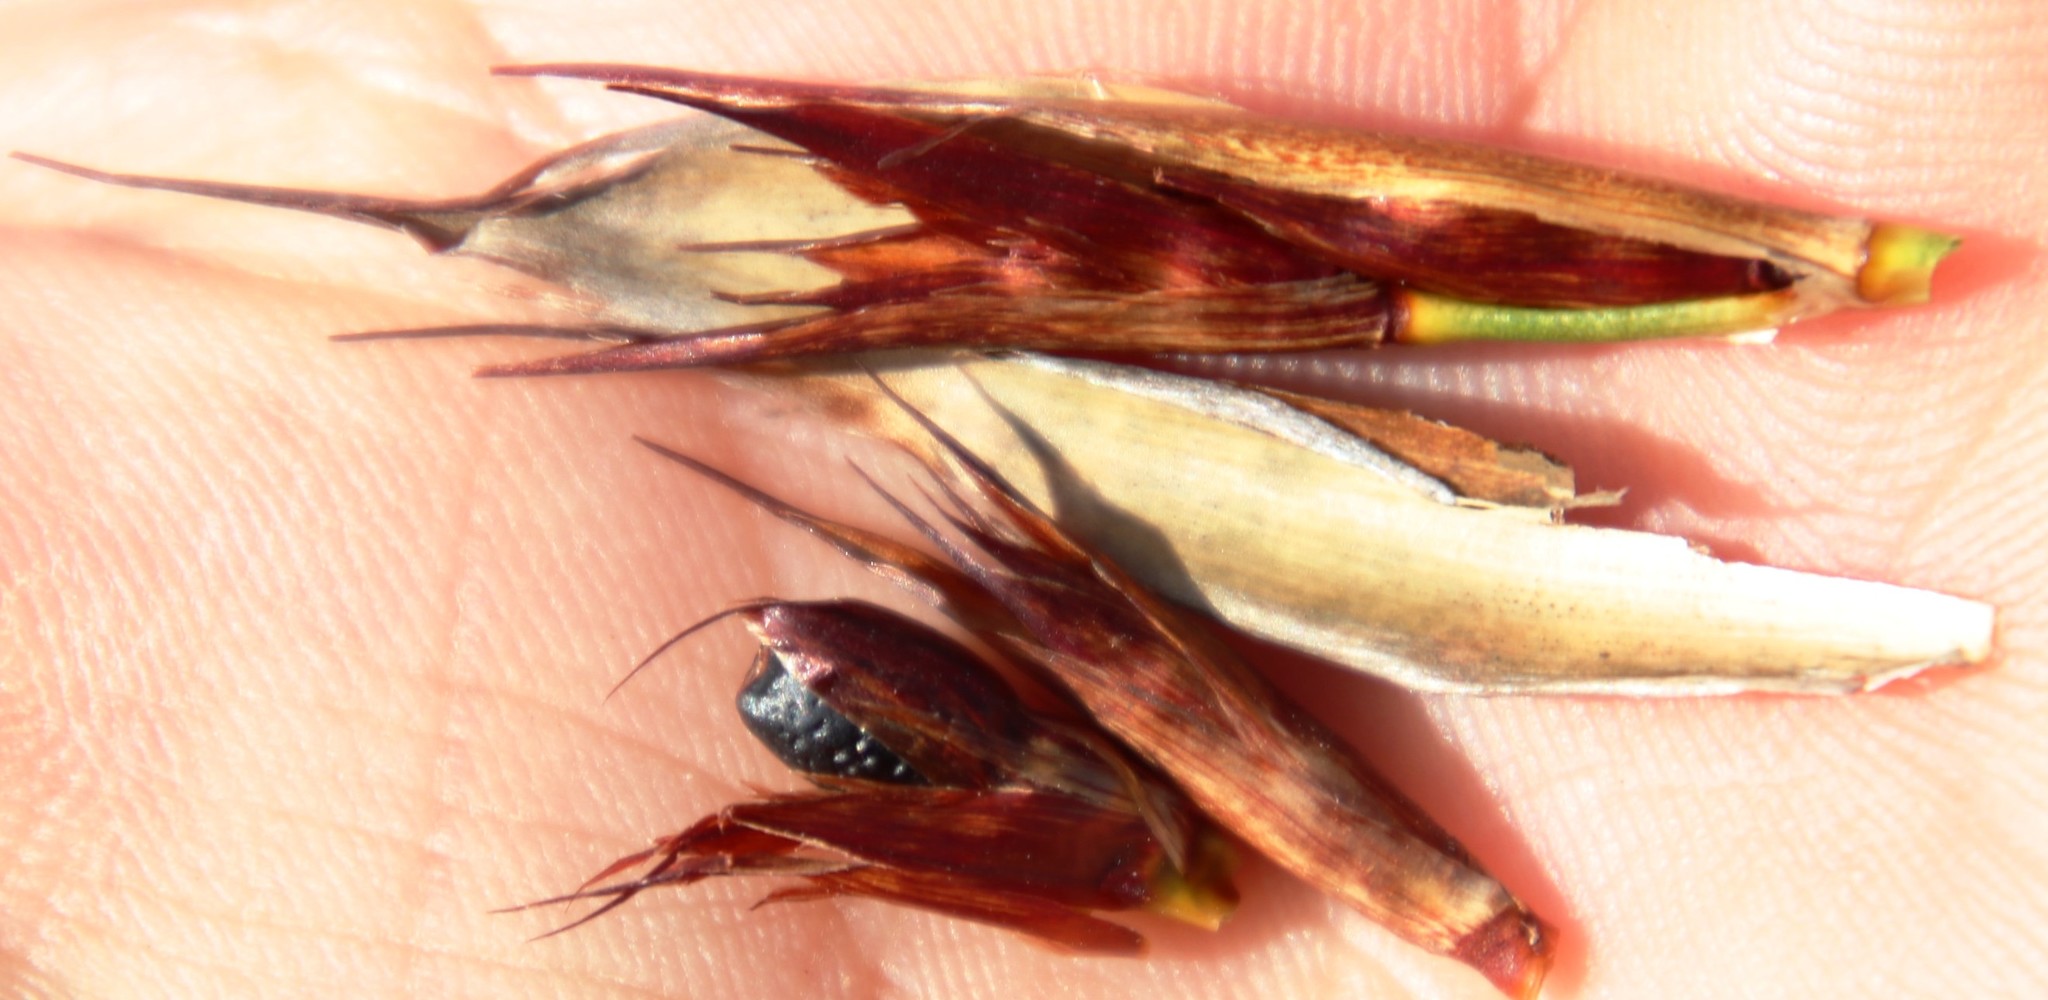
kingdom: Plantae
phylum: Tracheophyta
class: Liliopsida
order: Poales
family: Restionaceae
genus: Willdenowia
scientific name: Willdenowia sulcata
